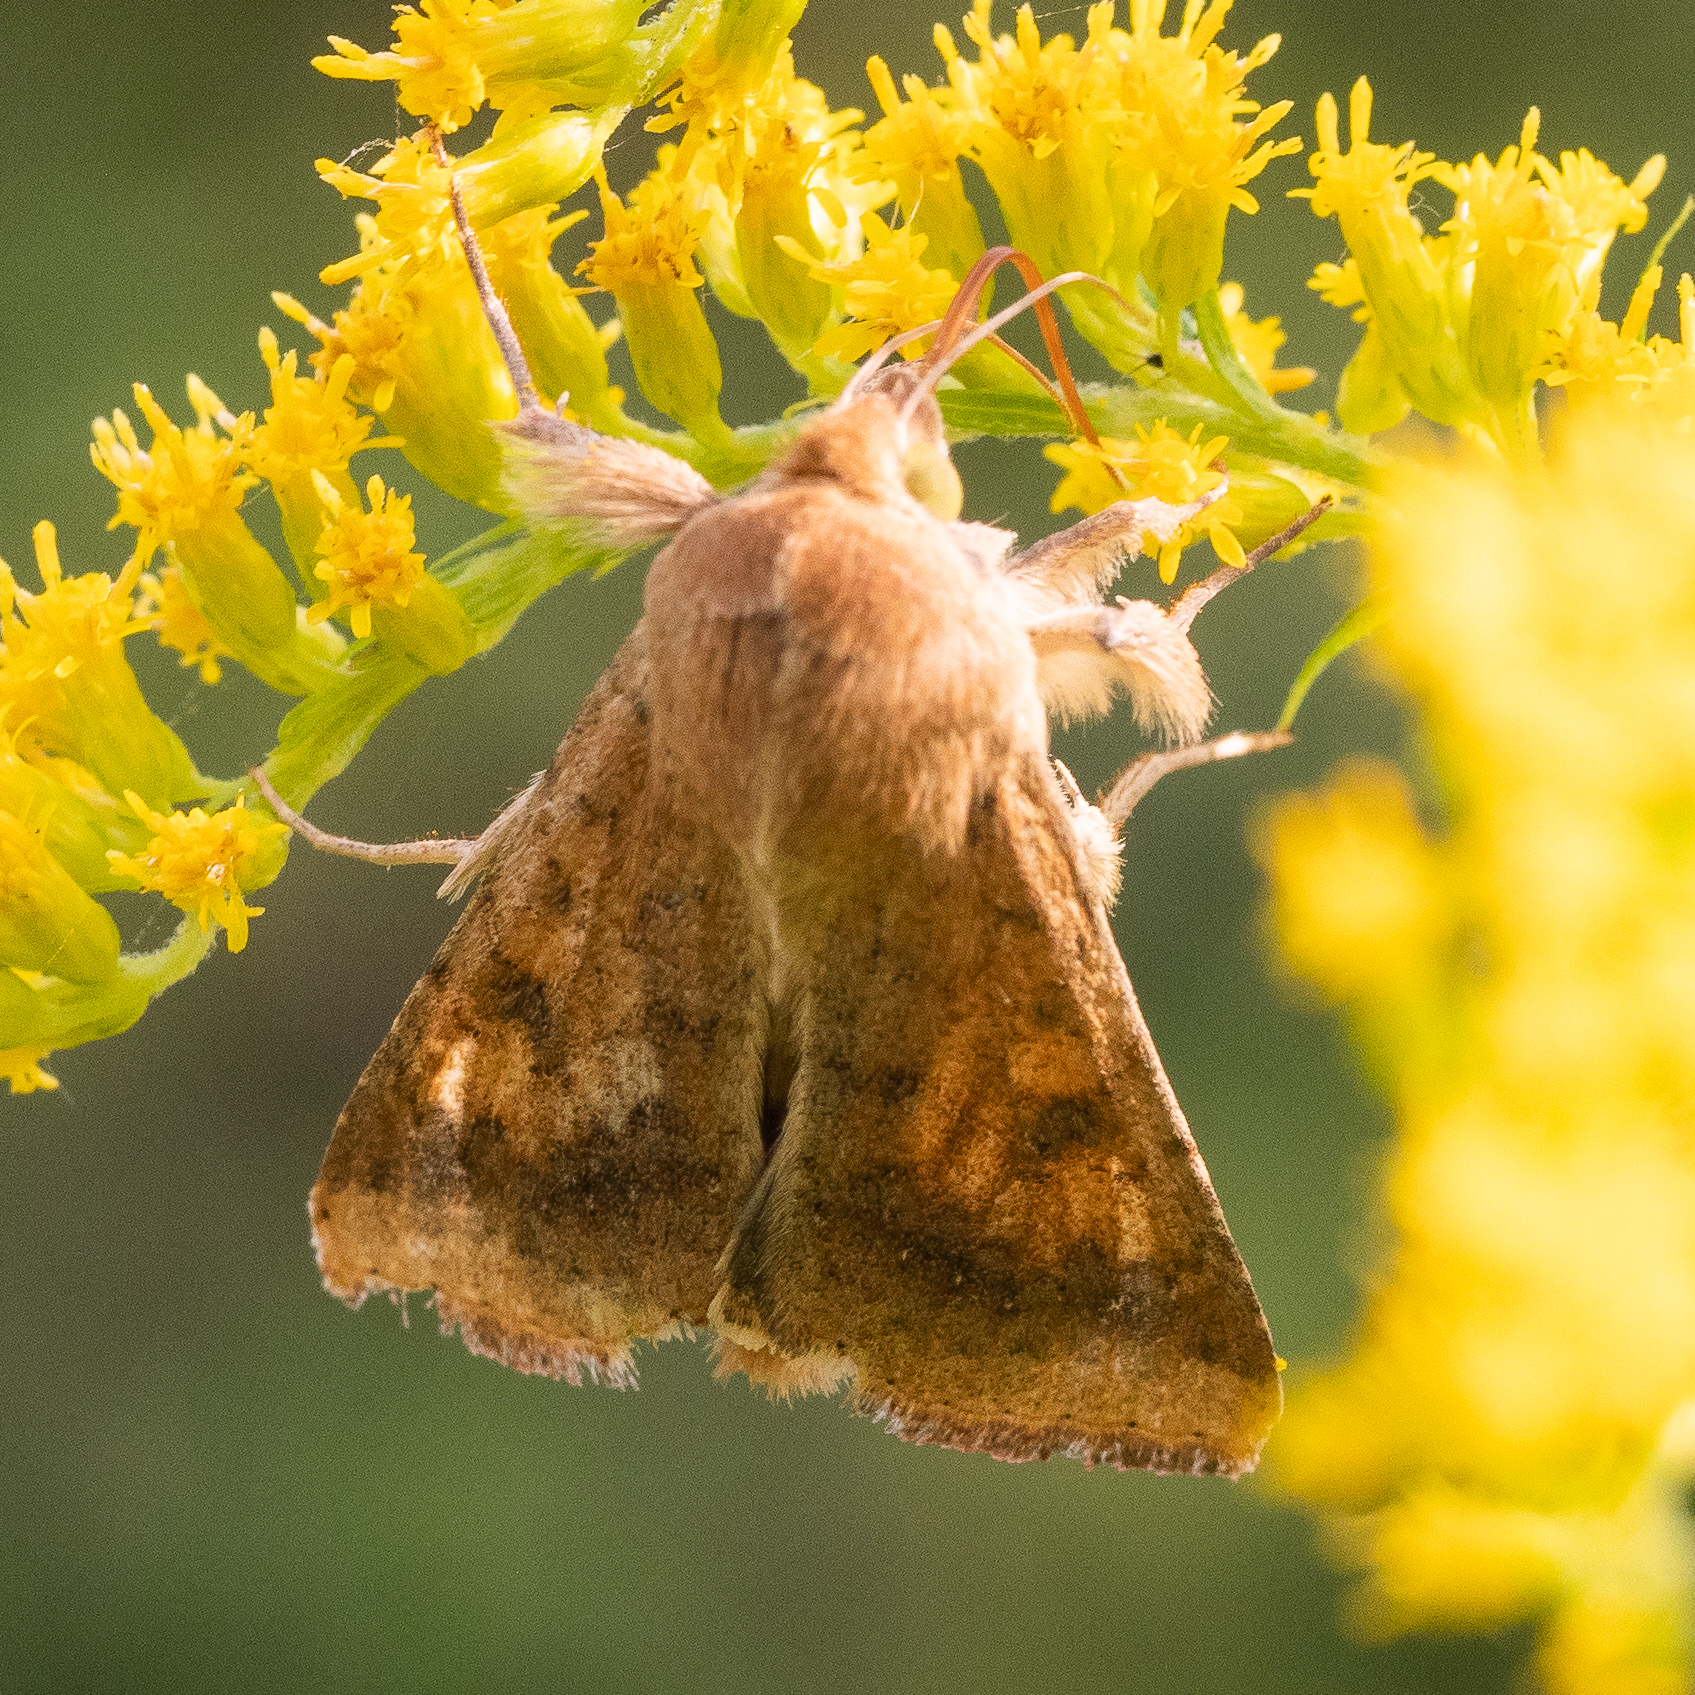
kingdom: Animalia
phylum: Arthropoda
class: Insecta
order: Lepidoptera
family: Noctuidae
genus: Helicoverpa
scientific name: Helicoverpa armigera
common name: Cotton bollworm
